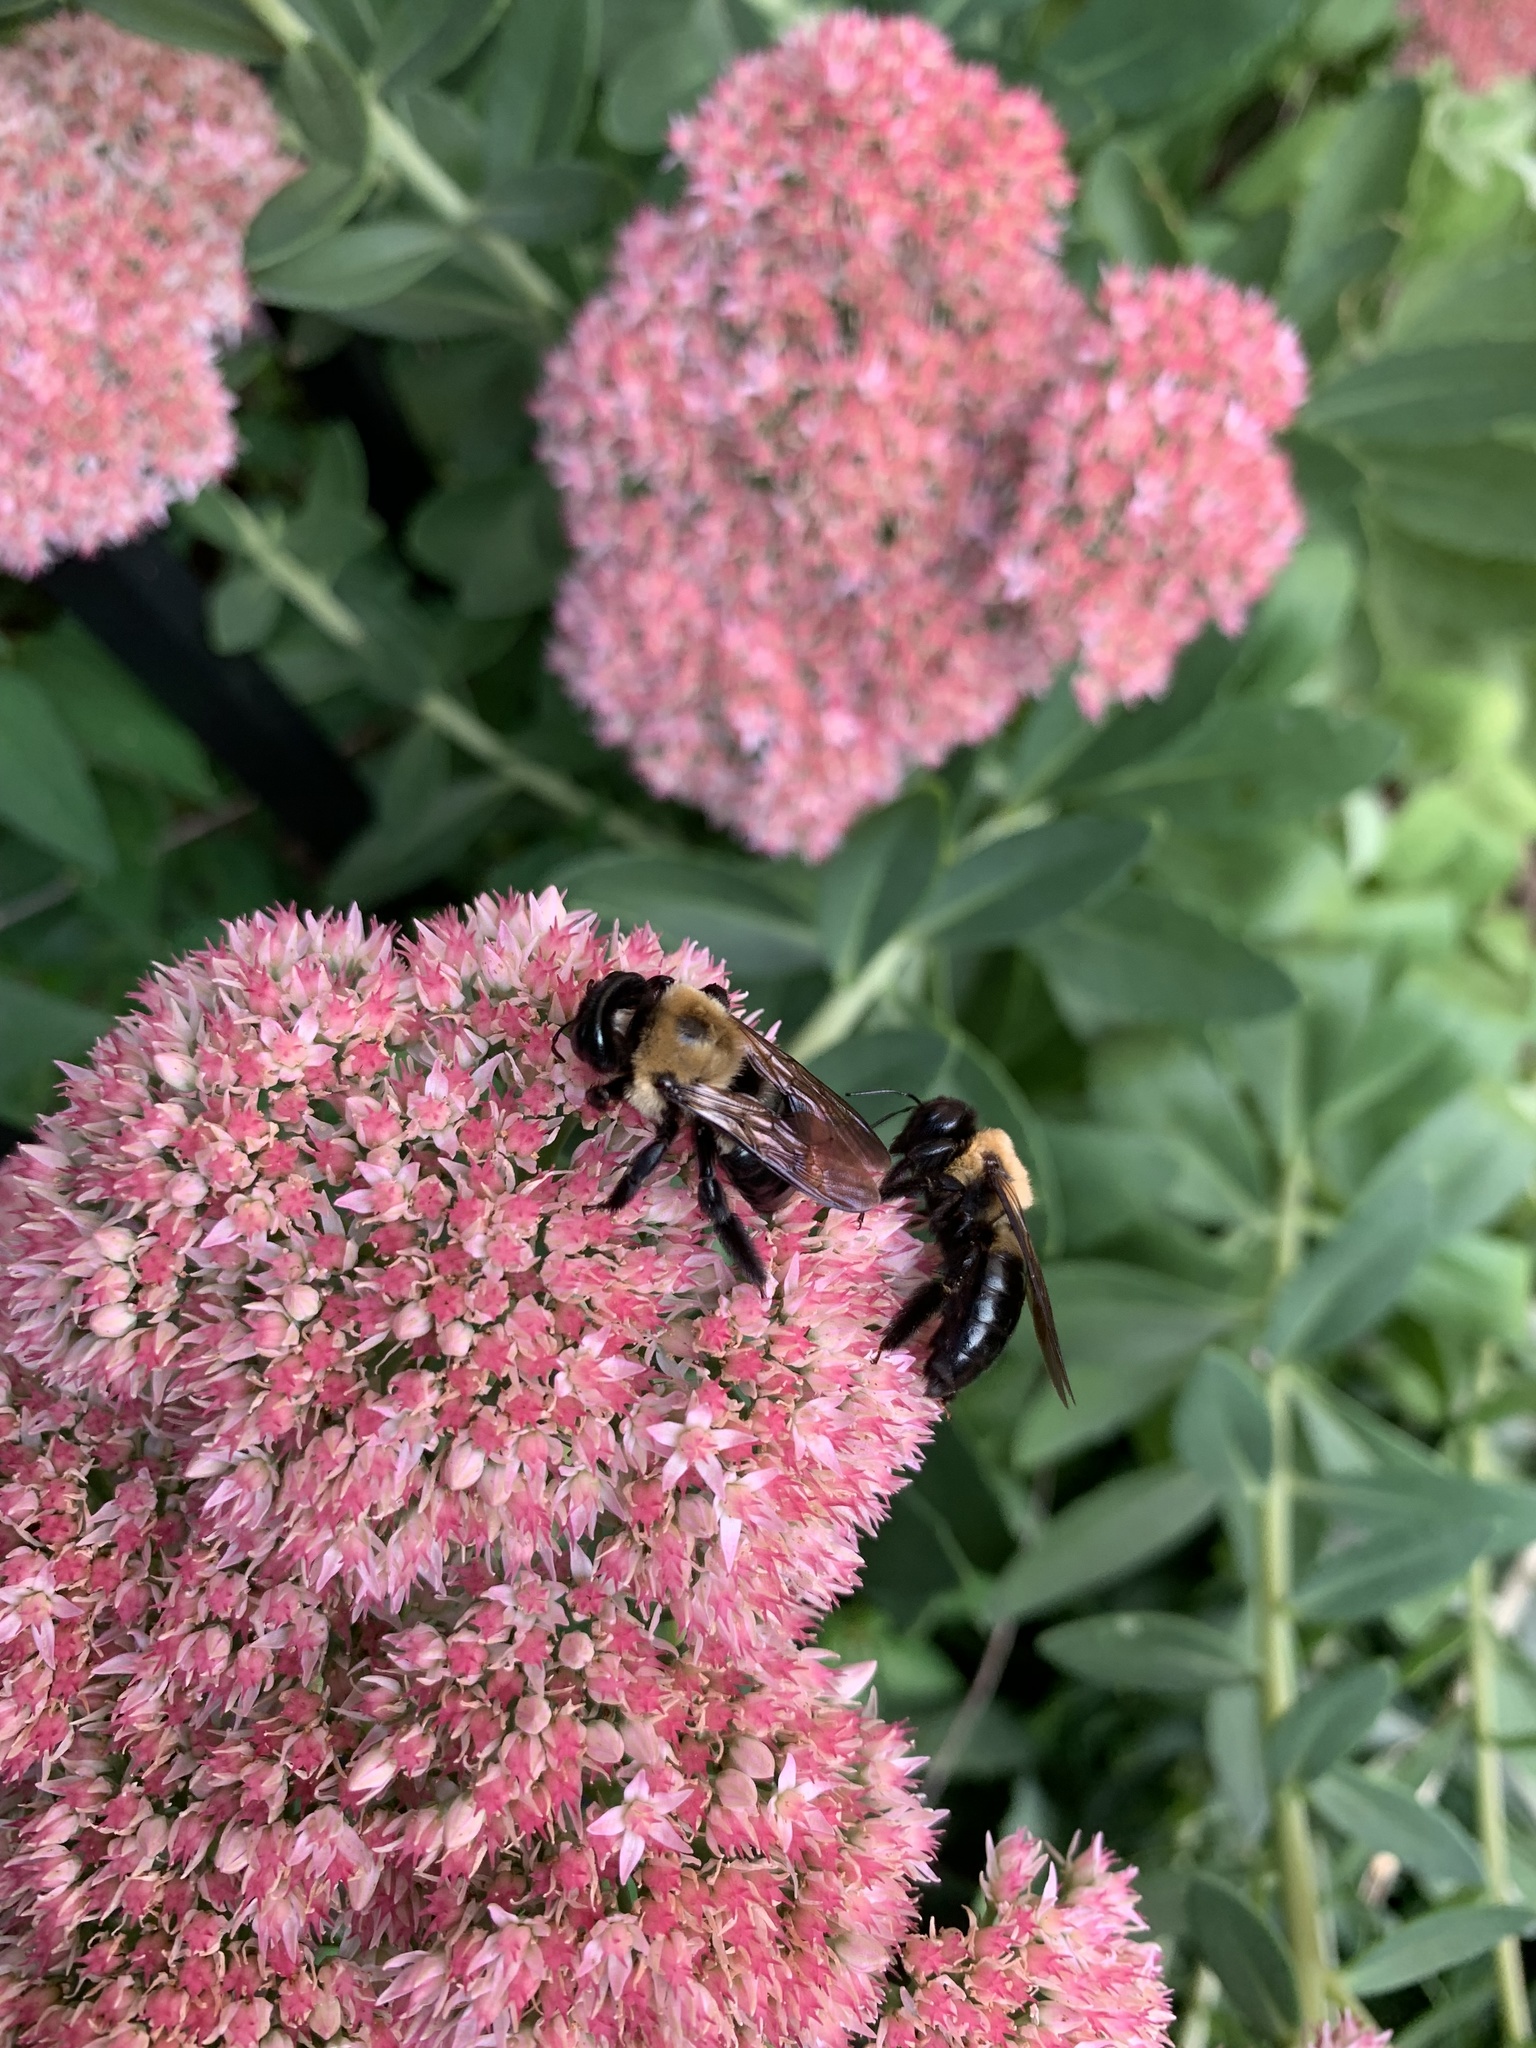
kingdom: Animalia
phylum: Arthropoda
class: Insecta
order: Hymenoptera
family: Apidae
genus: Xylocopa
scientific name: Xylocopa virginica
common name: Carpenter bee
